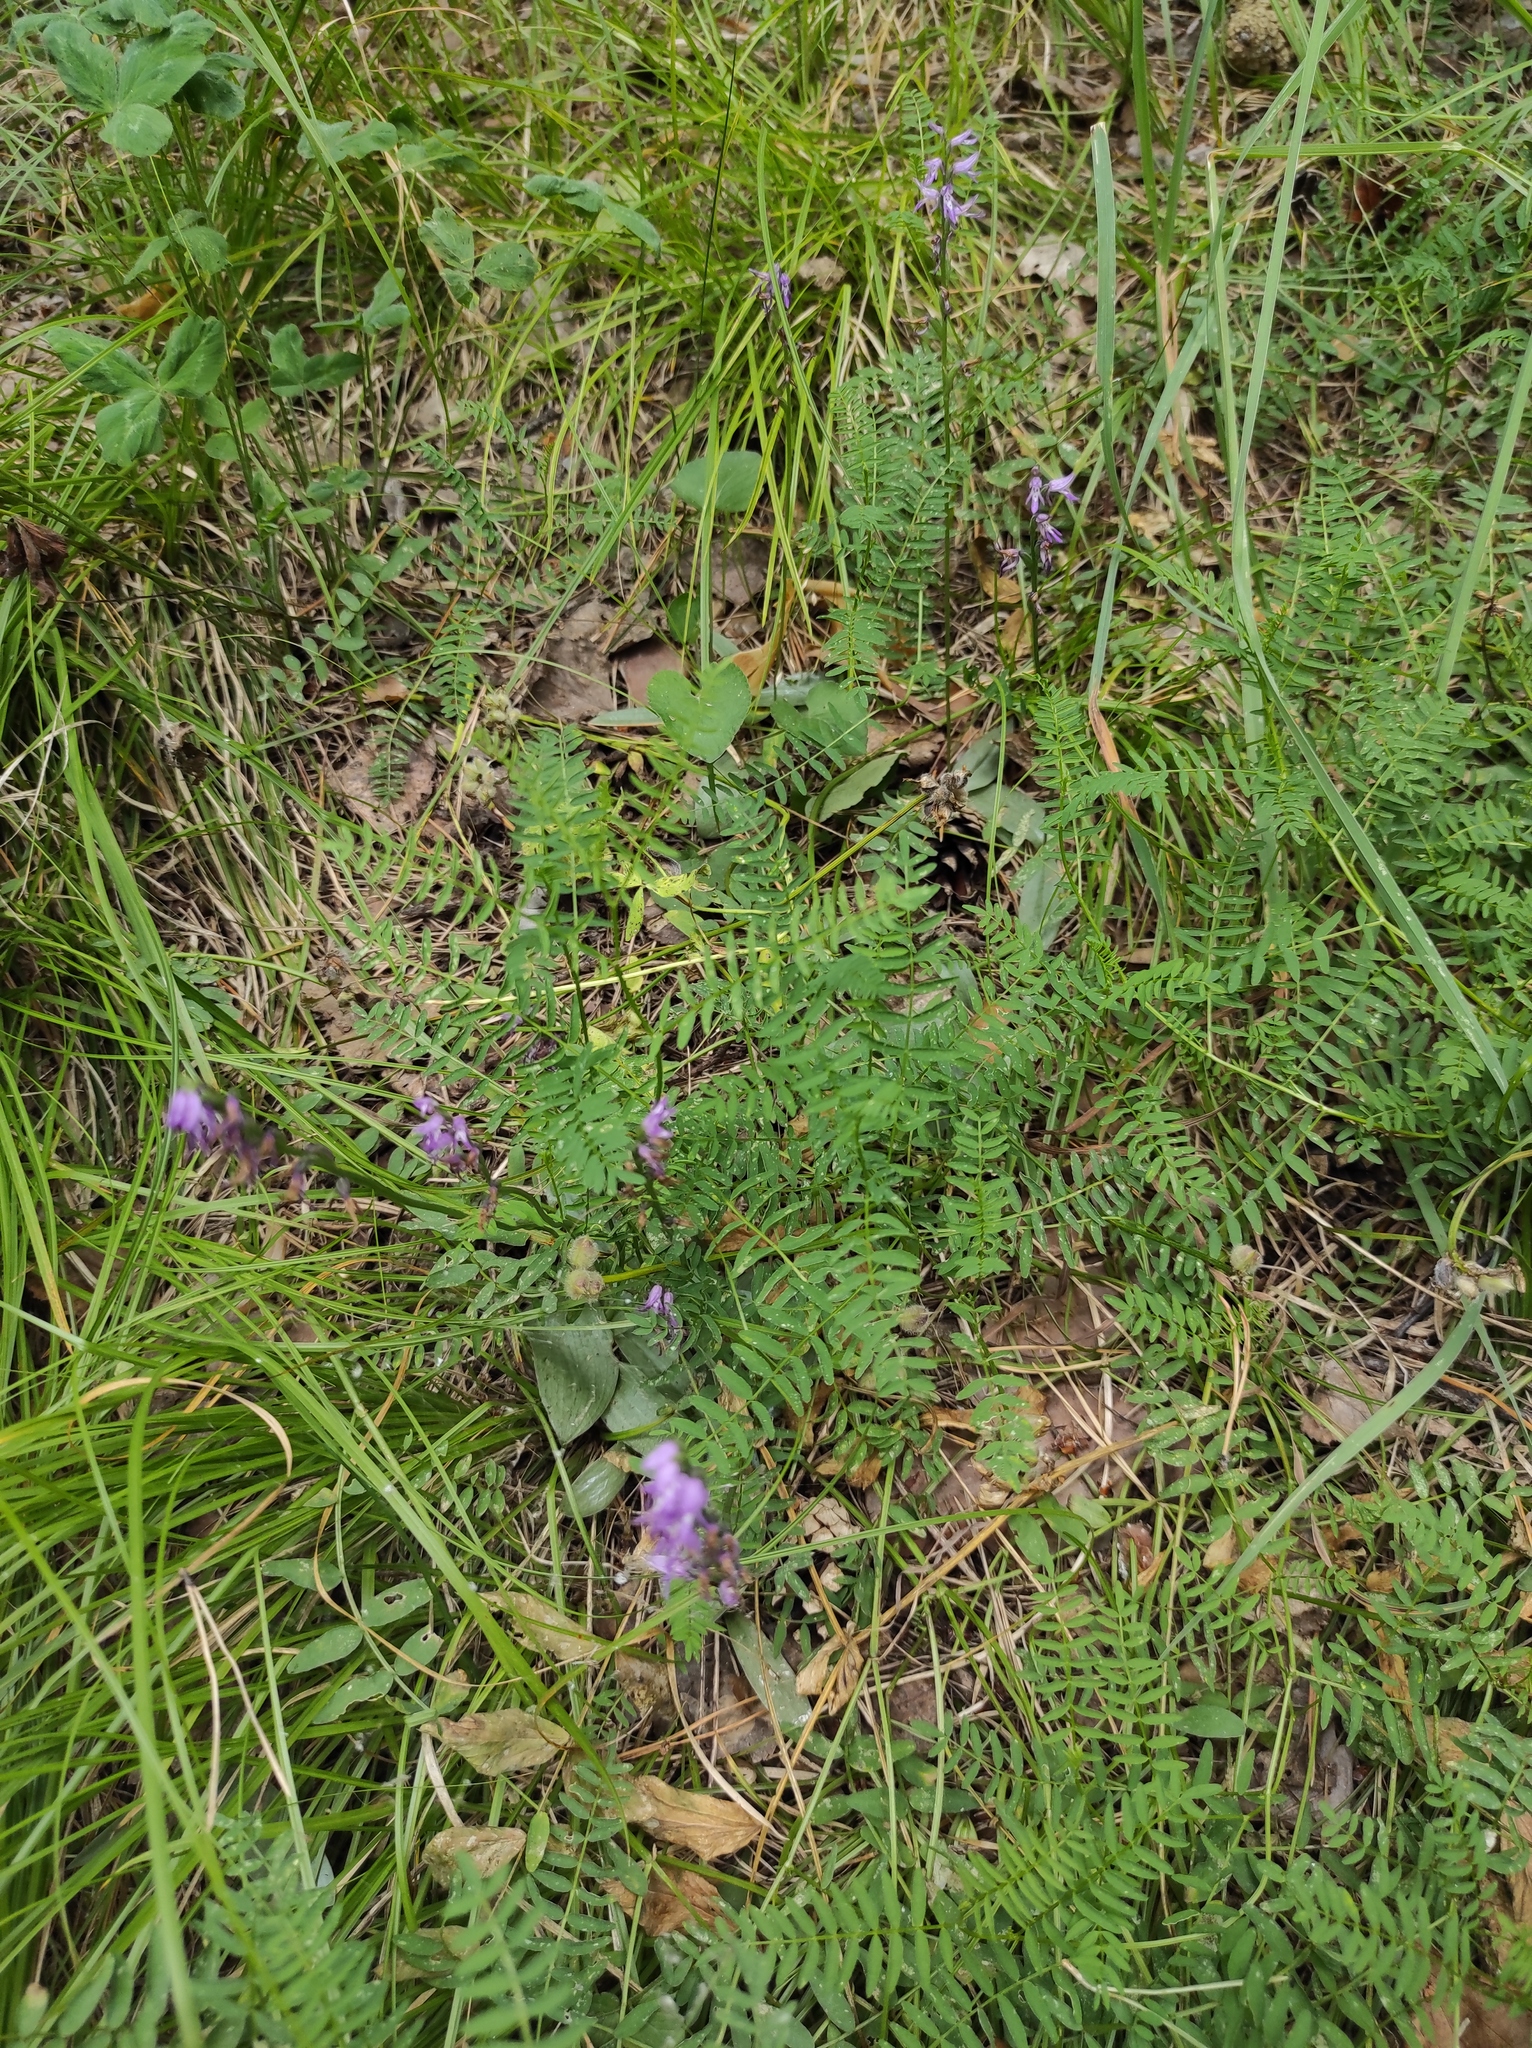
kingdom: Plantae
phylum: Tracheophyta
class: Liliopsida
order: Asparagales
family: Orchidaceae
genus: Hemipilia
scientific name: Hemipilia cucullata
